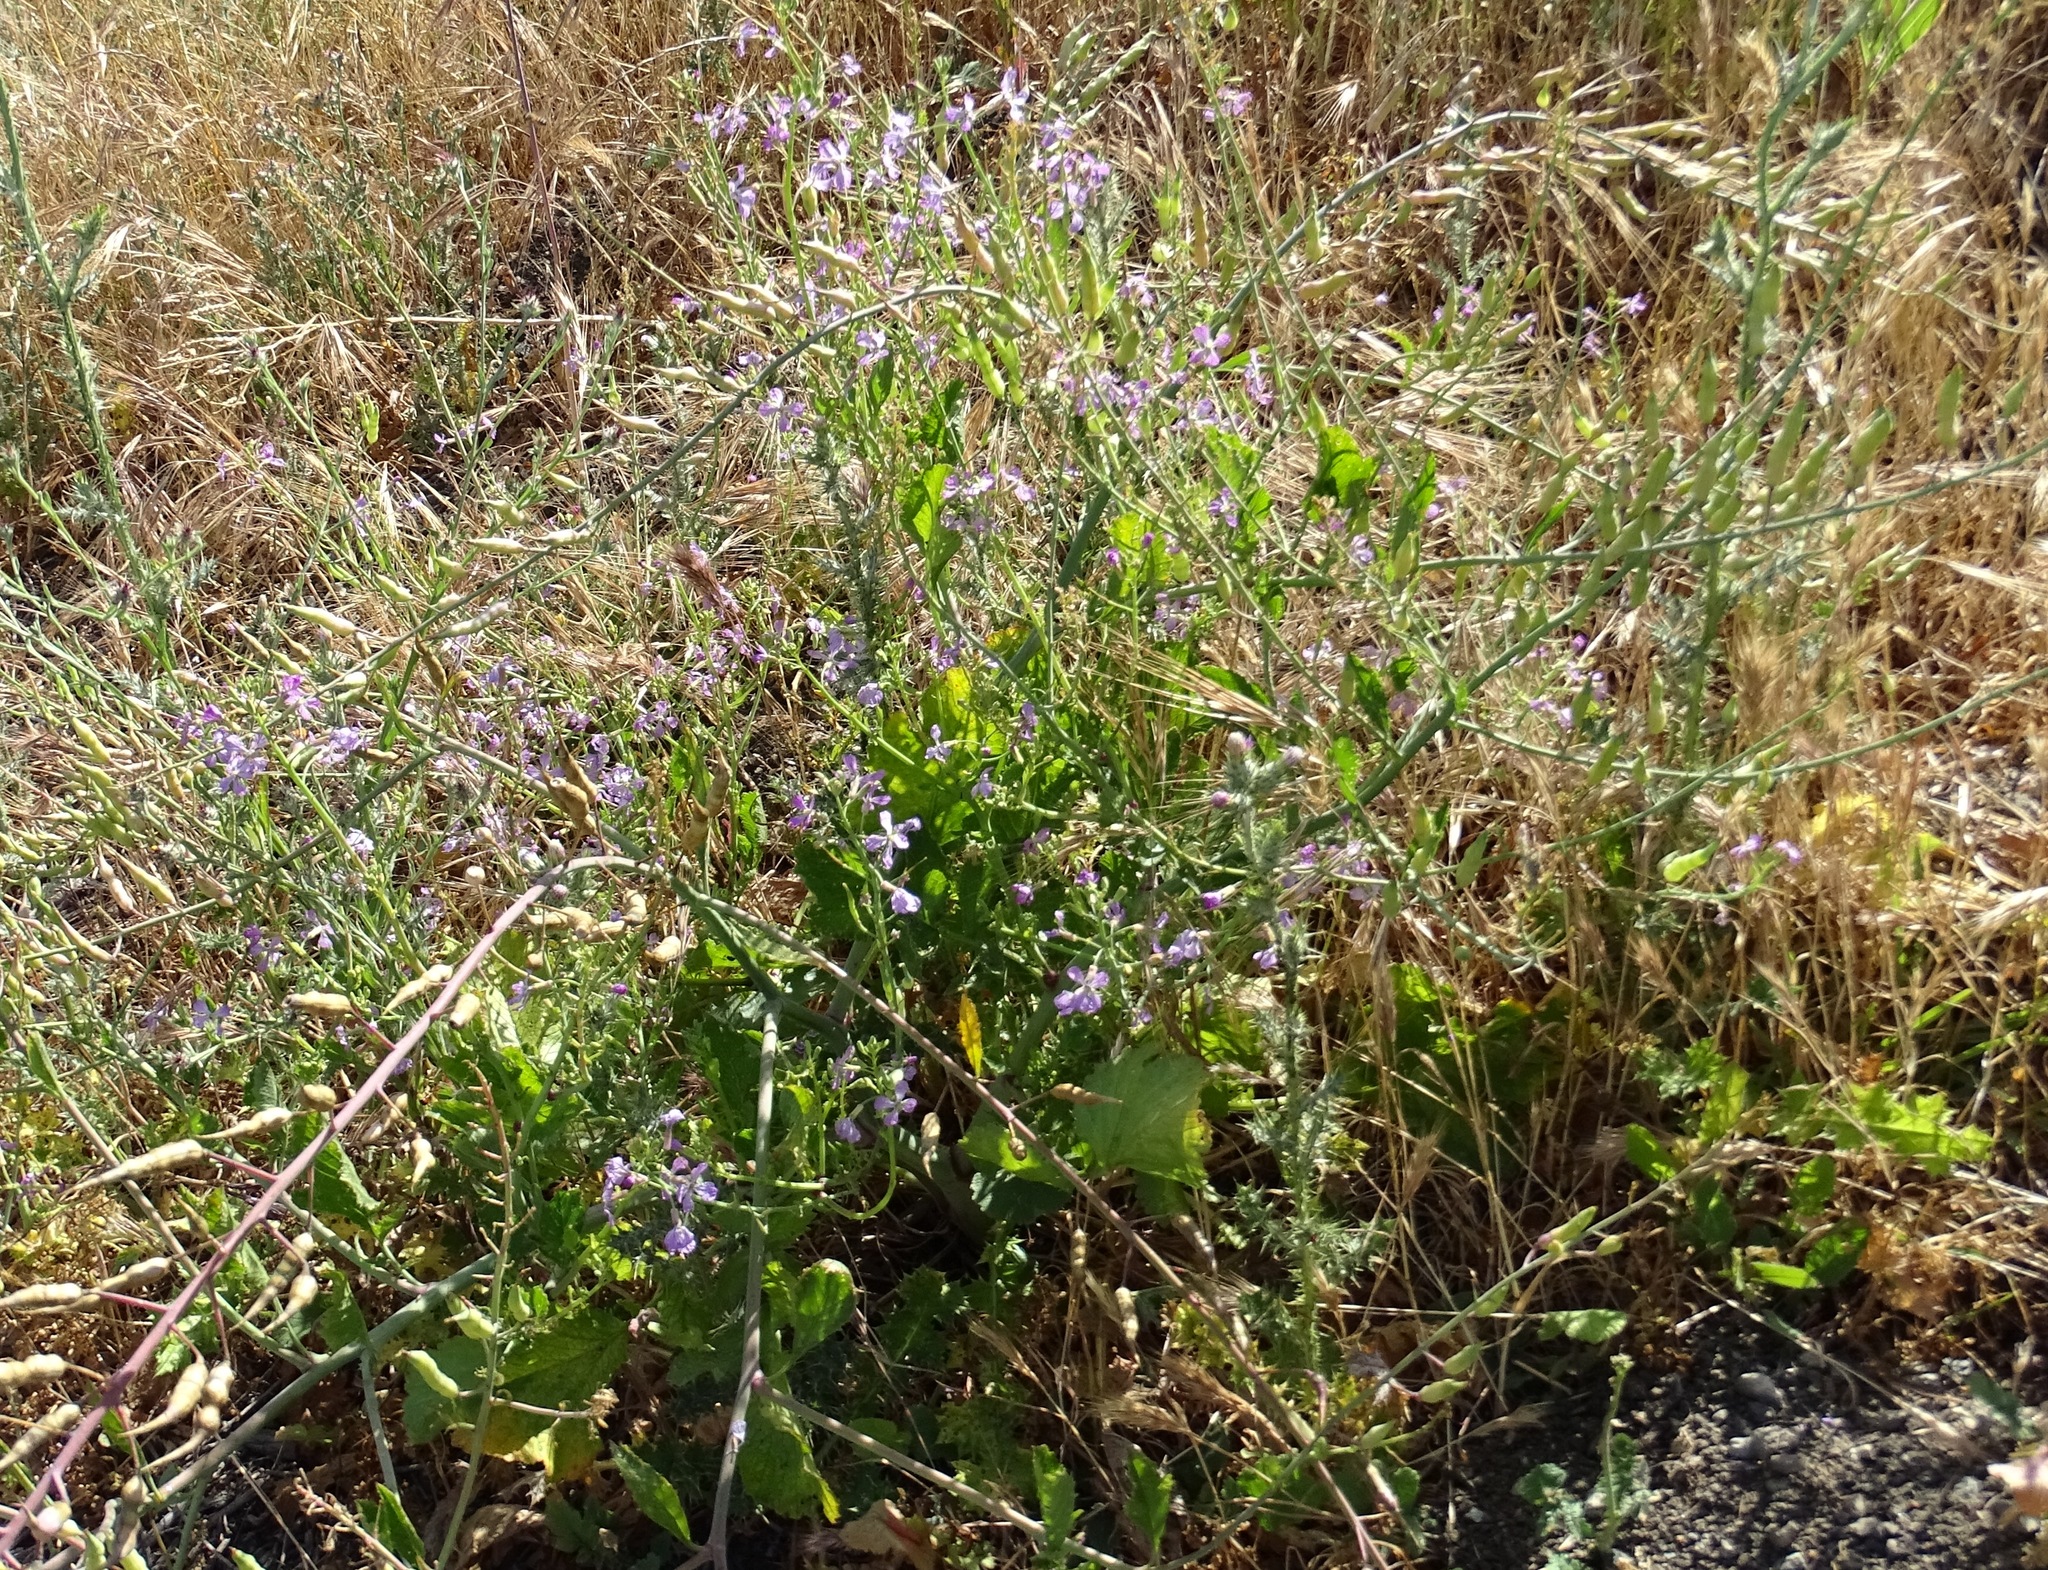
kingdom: Plantae
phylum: Tracheophyta
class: Magnoliopsida
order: Brassicales
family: Brassicaceae
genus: Raphanus
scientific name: Raphanus sativus
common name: Cultivated radish
